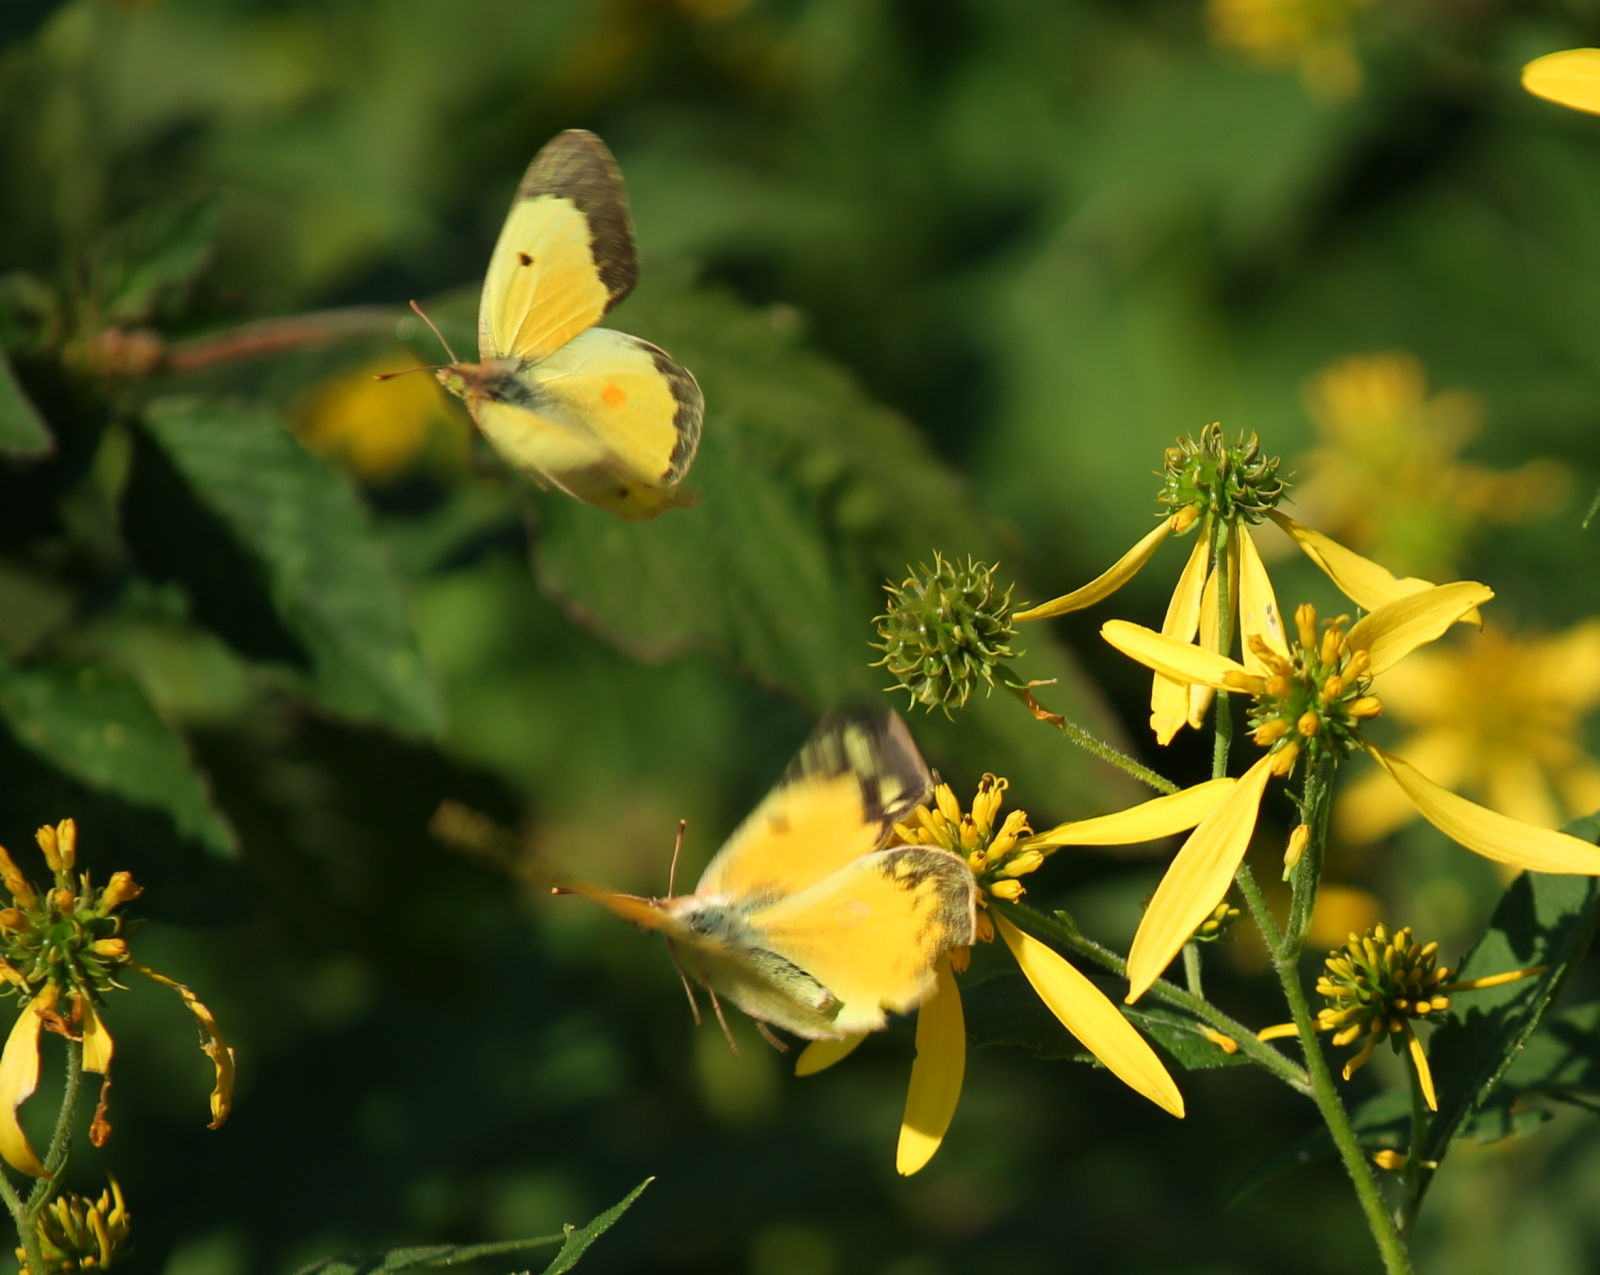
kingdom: Animalia
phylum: Arthropoda
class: Insecta
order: Lepidoptera
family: Pieridae
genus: Colias
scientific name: Colias eurytheme
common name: Alfalfa butterfly
